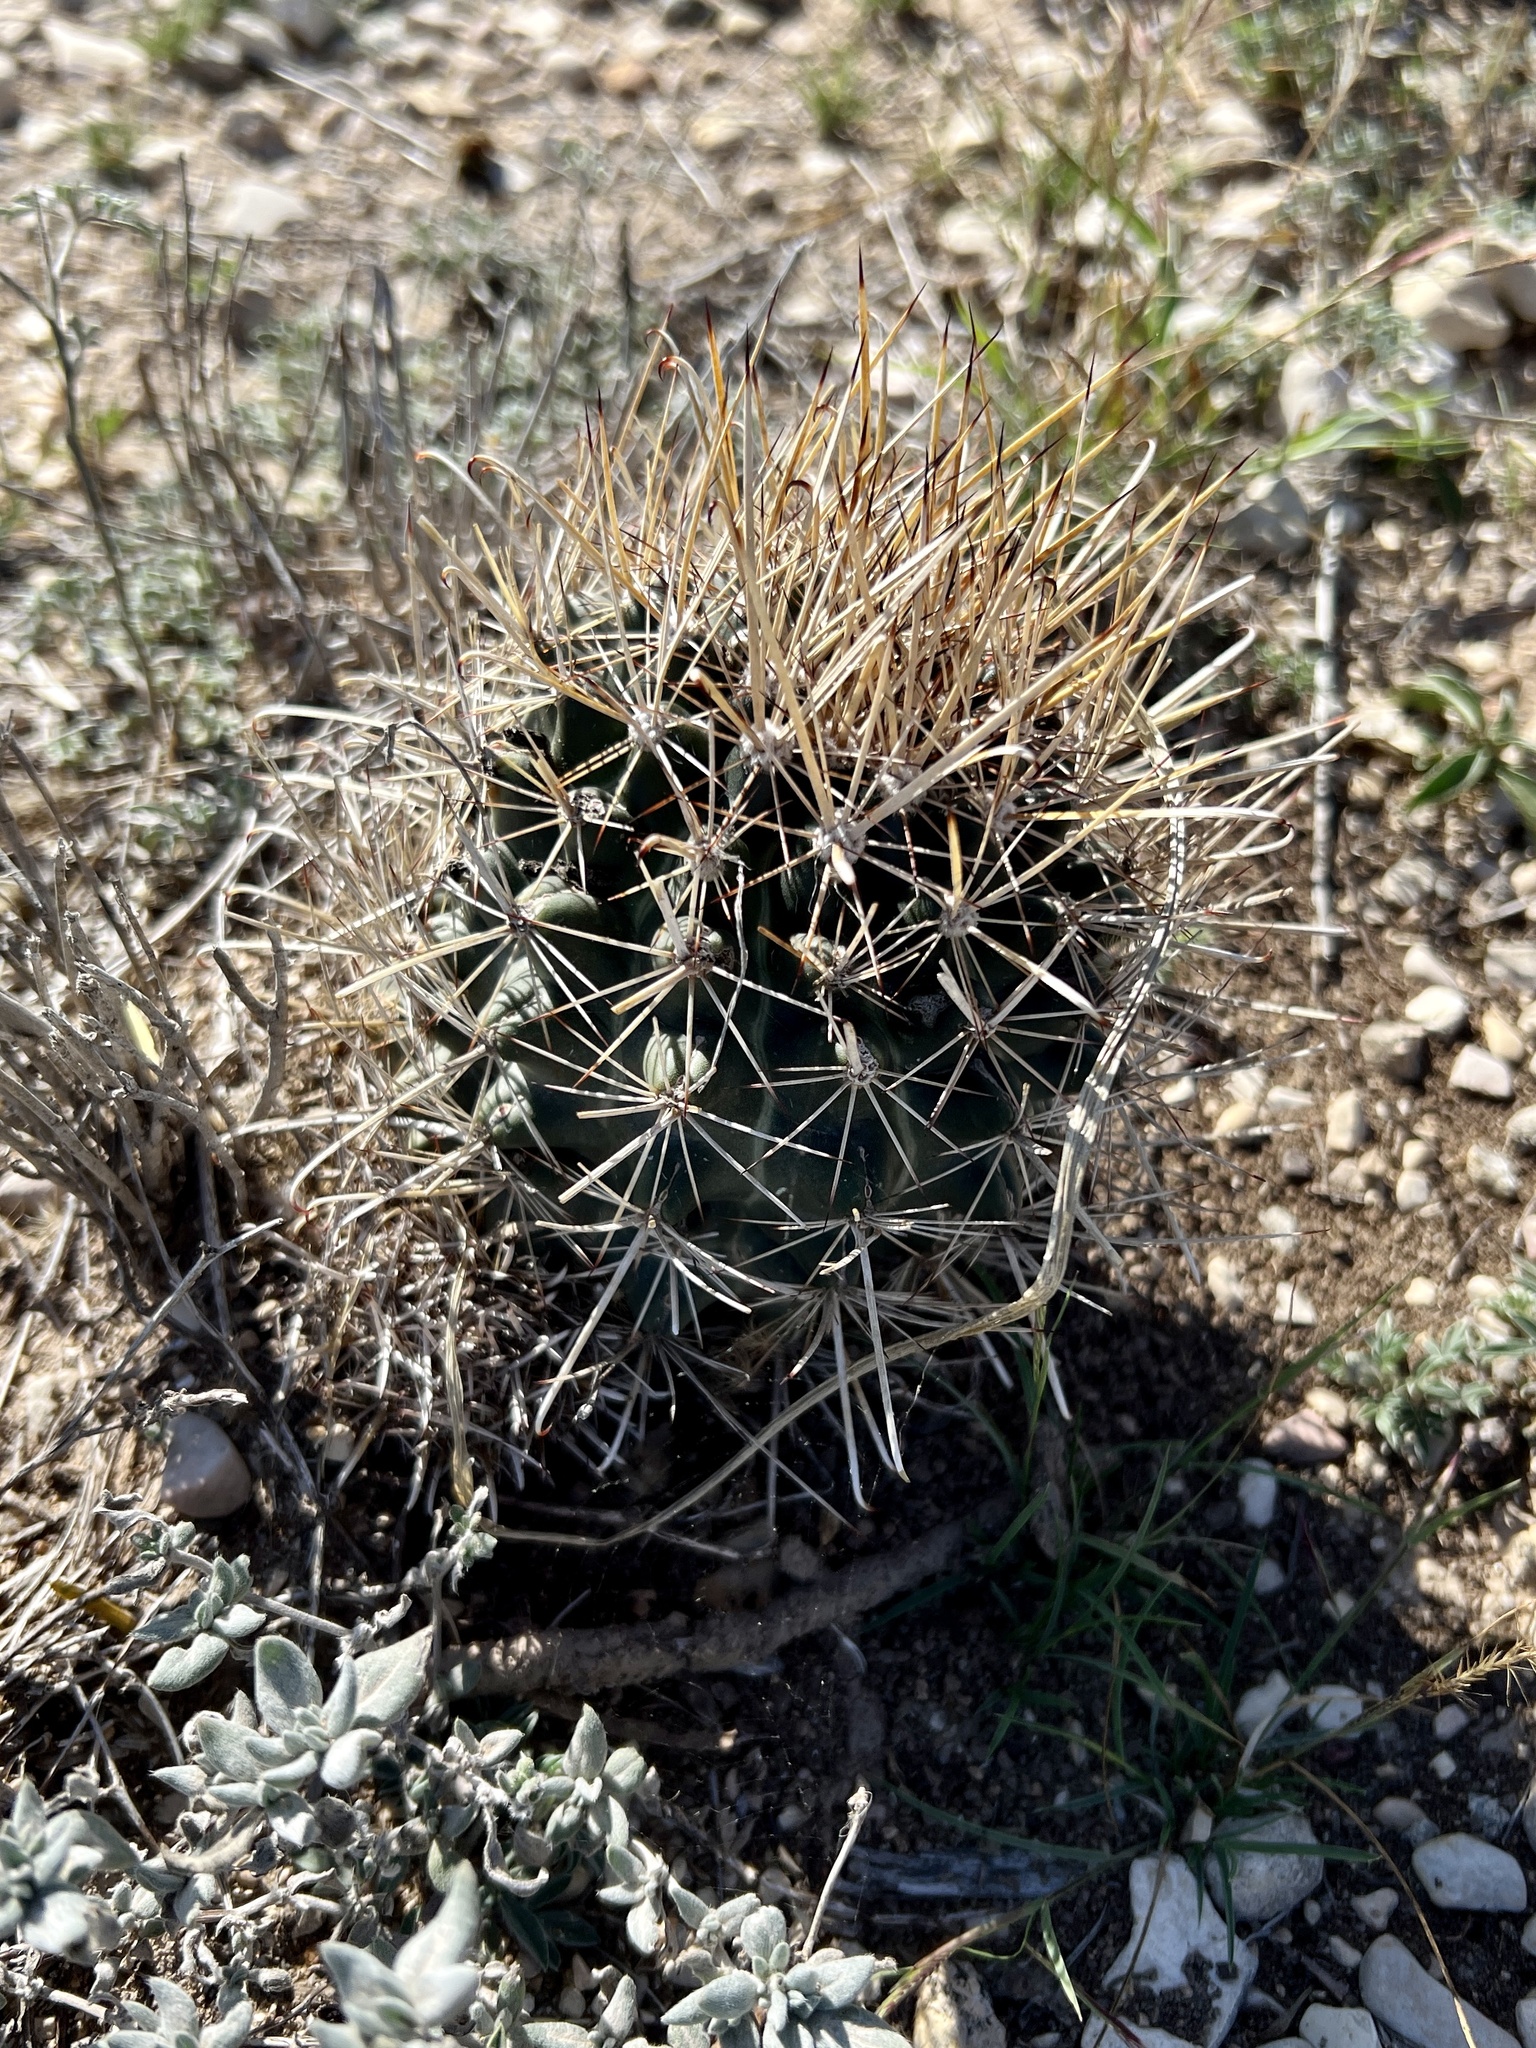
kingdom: Plantae
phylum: Tracheophyta
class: Magnoliopsida
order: Caryophyllales
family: Cactaceae
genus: Sclerocactus
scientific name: Sclerocactus brevihamatus
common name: Engelmann's fishhook cactus
